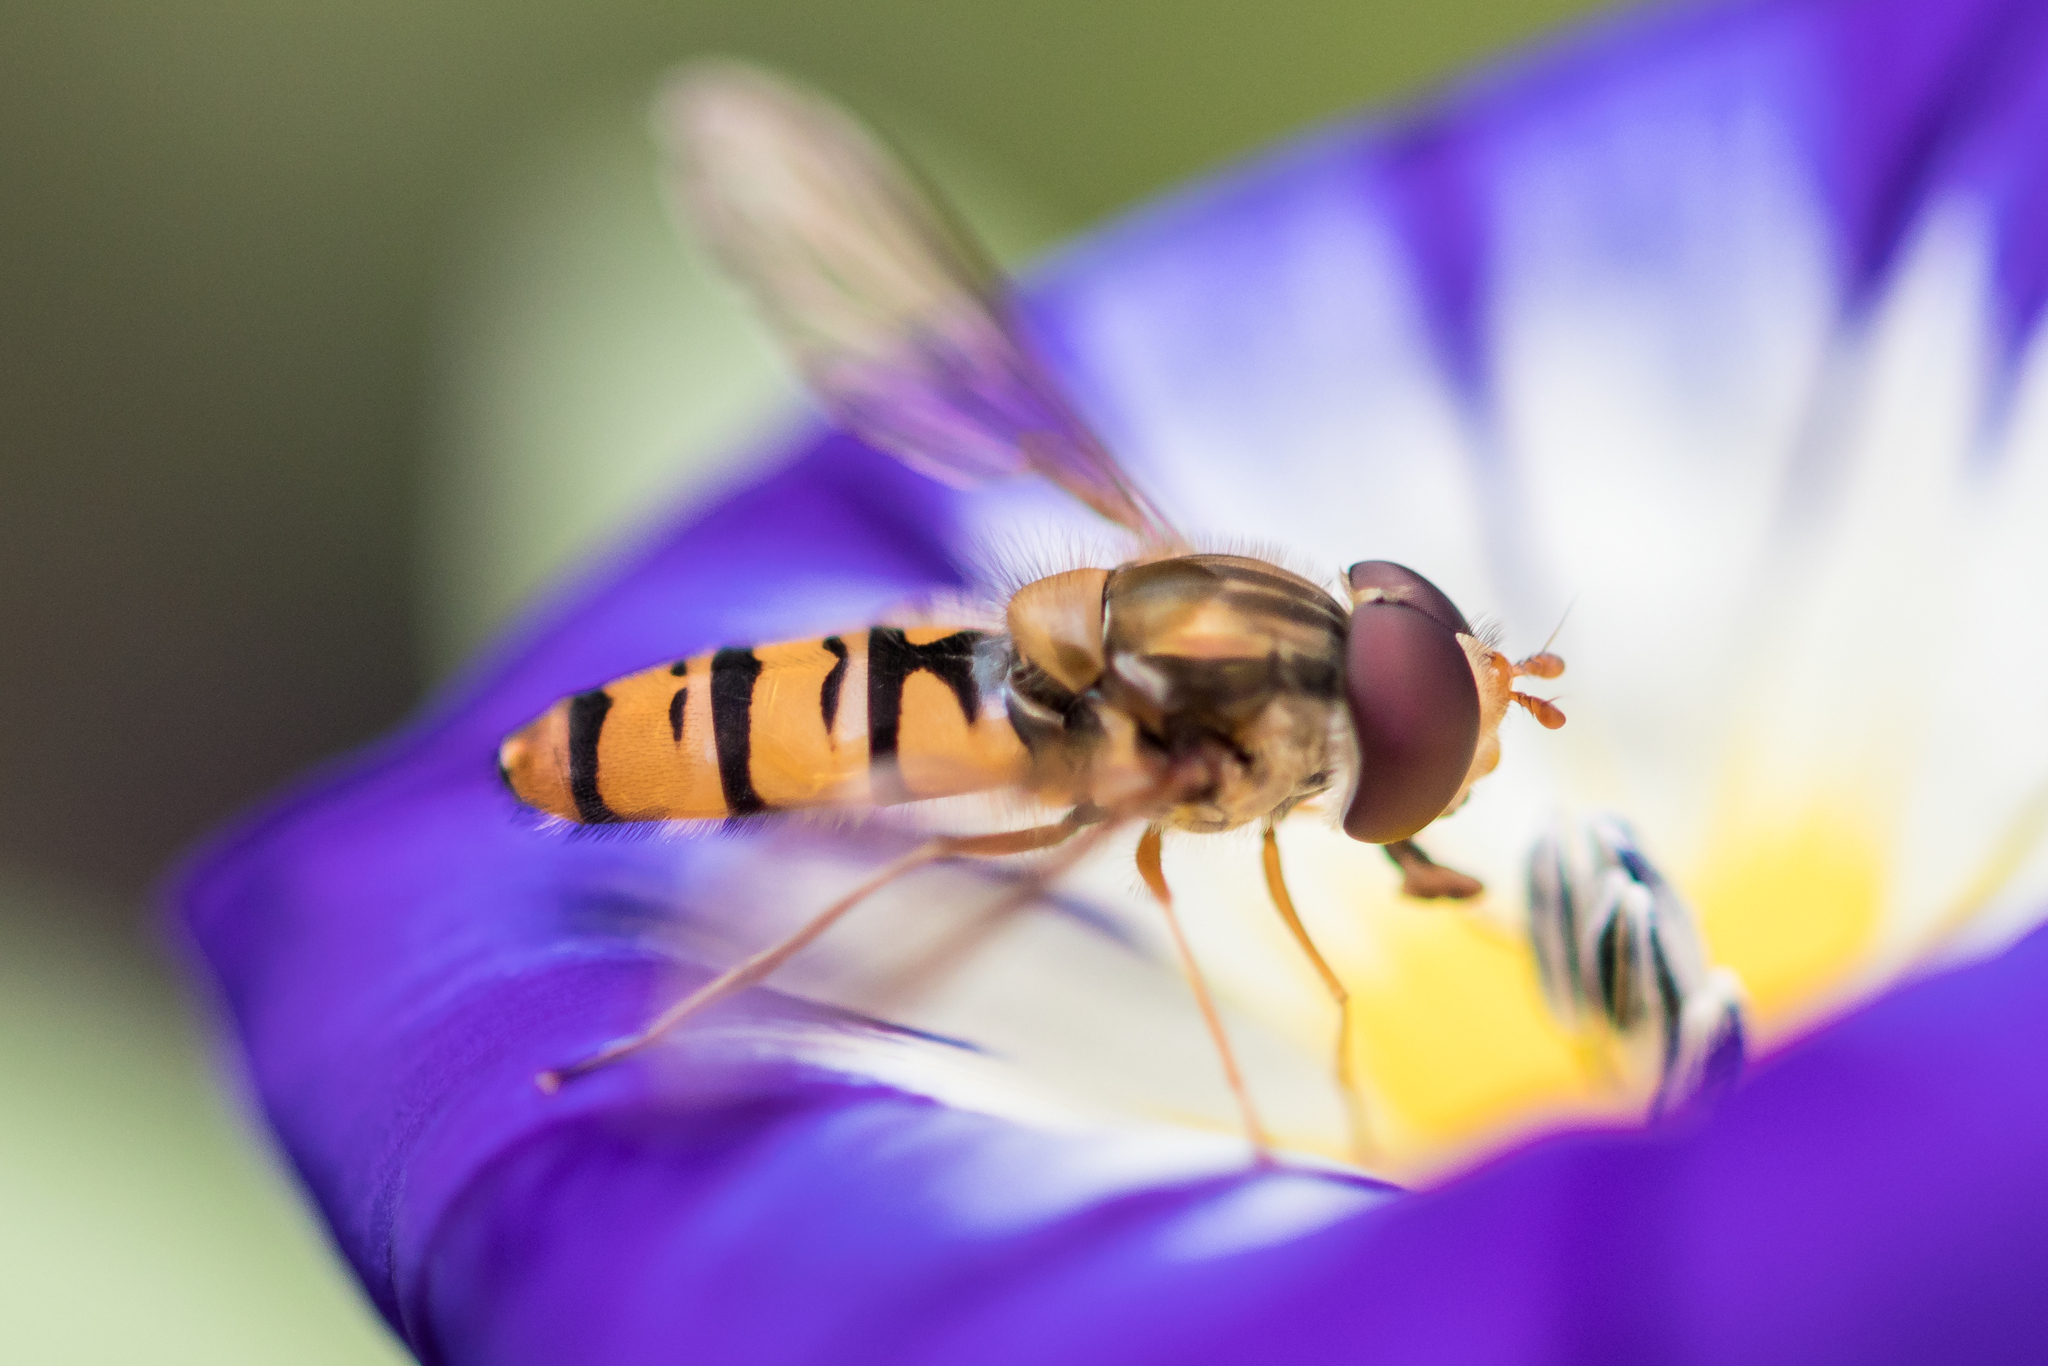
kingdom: Animalia
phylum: Arthropoda
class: Insecta
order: Diptera
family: Syrphidae
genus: Episyrphus
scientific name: Episyrphus balteatus
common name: Marmalade hoverfly
